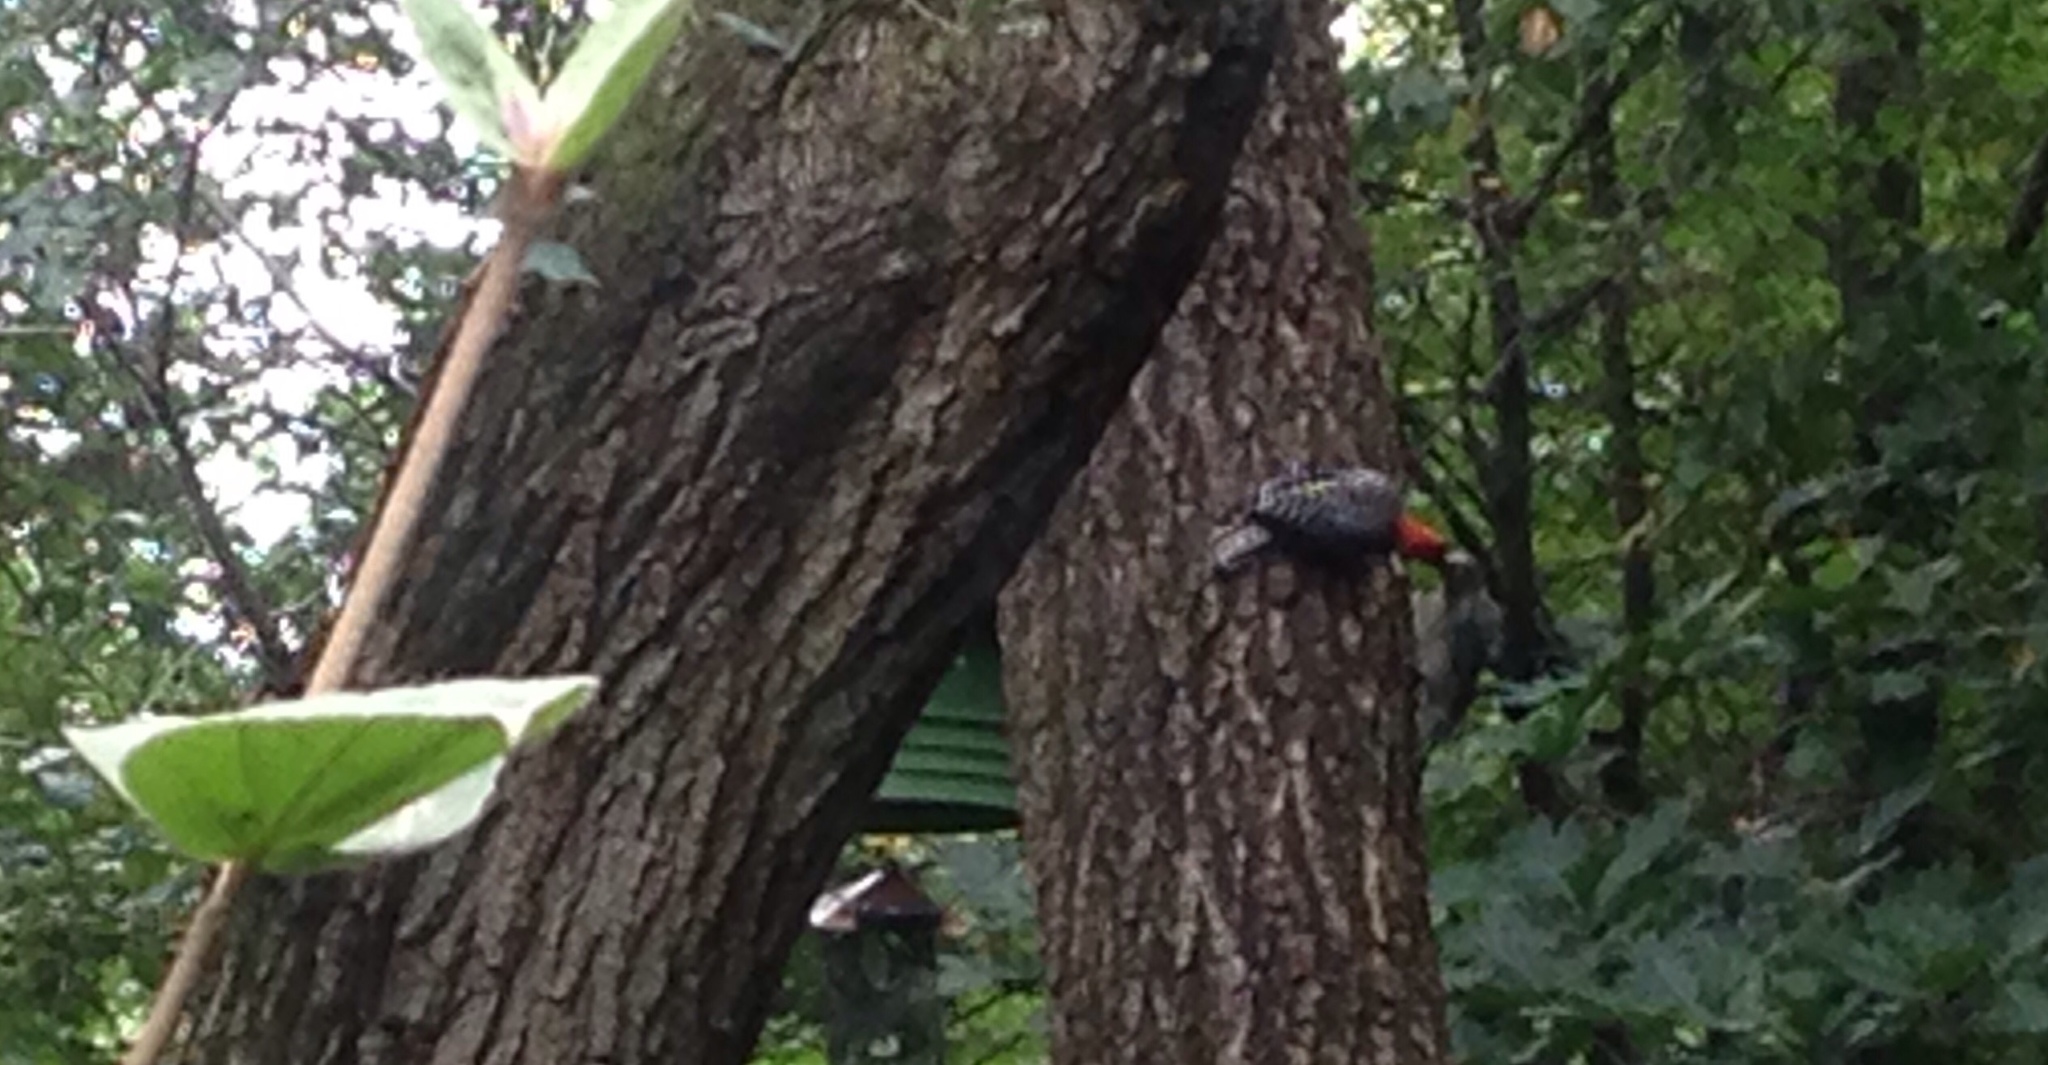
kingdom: Animalia
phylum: Chordata
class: Aves
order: Piciformes
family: Picidae
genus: Melanerpes
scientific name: Melanerpes carolinus
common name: Red-bellied woodpecker
